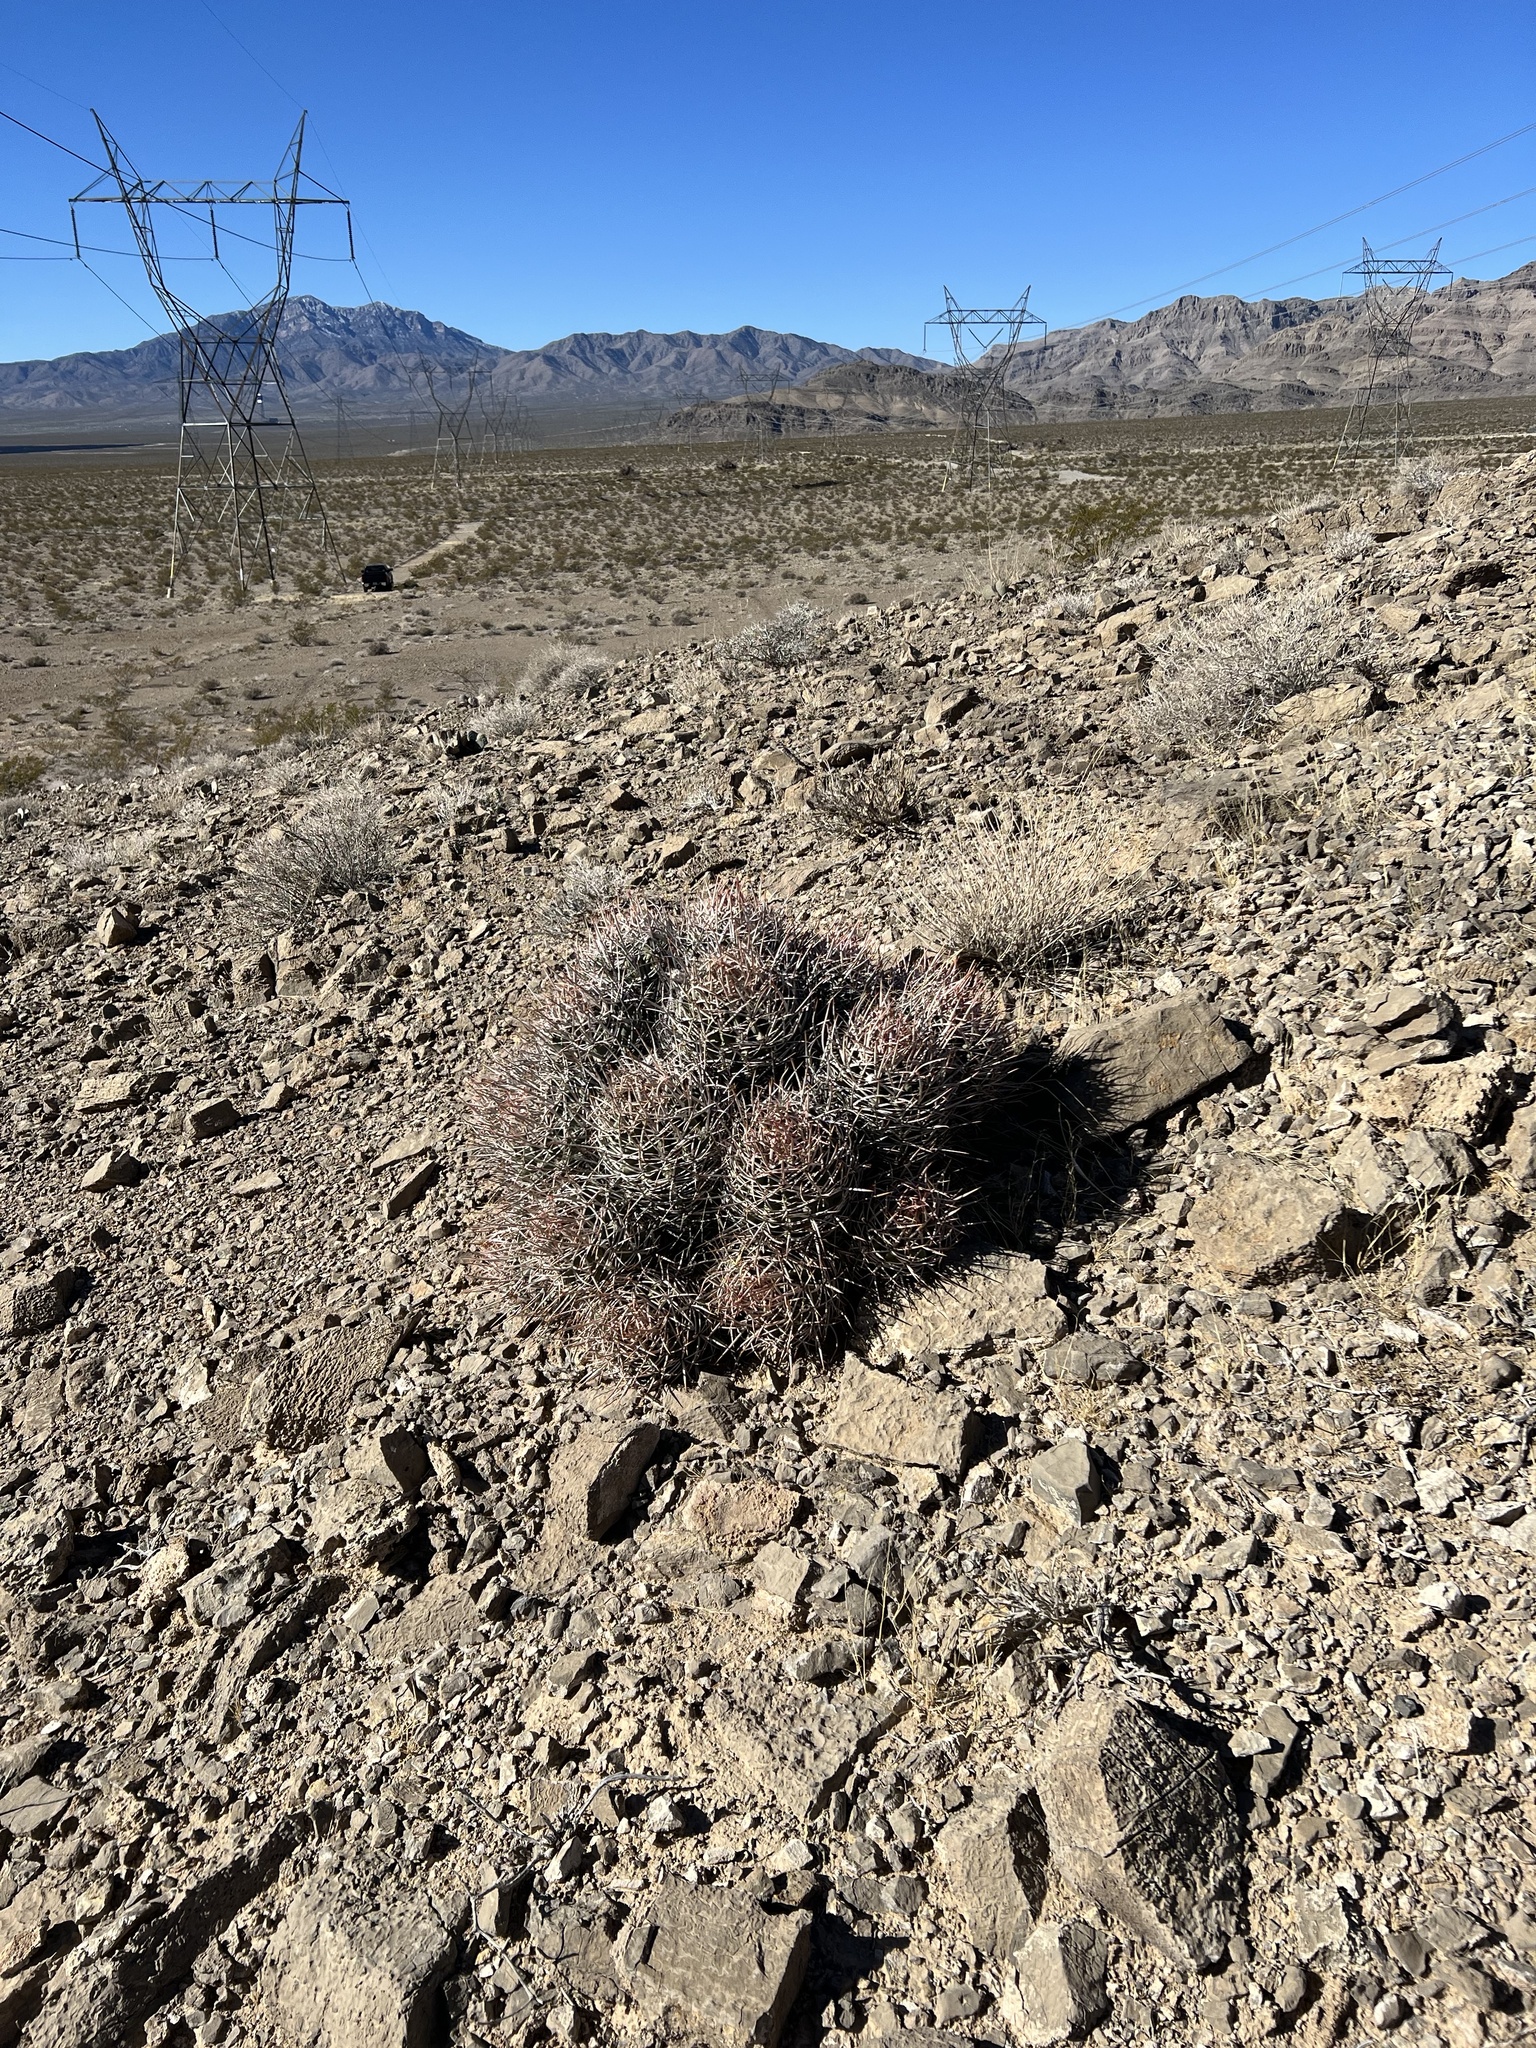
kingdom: Plantae
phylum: Tracheophyta
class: Magnoliopsida
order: Caryophyllales
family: Cactaceae
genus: Echinocactus
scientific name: Echinocactus polycephalus
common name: Cottontop cactus
